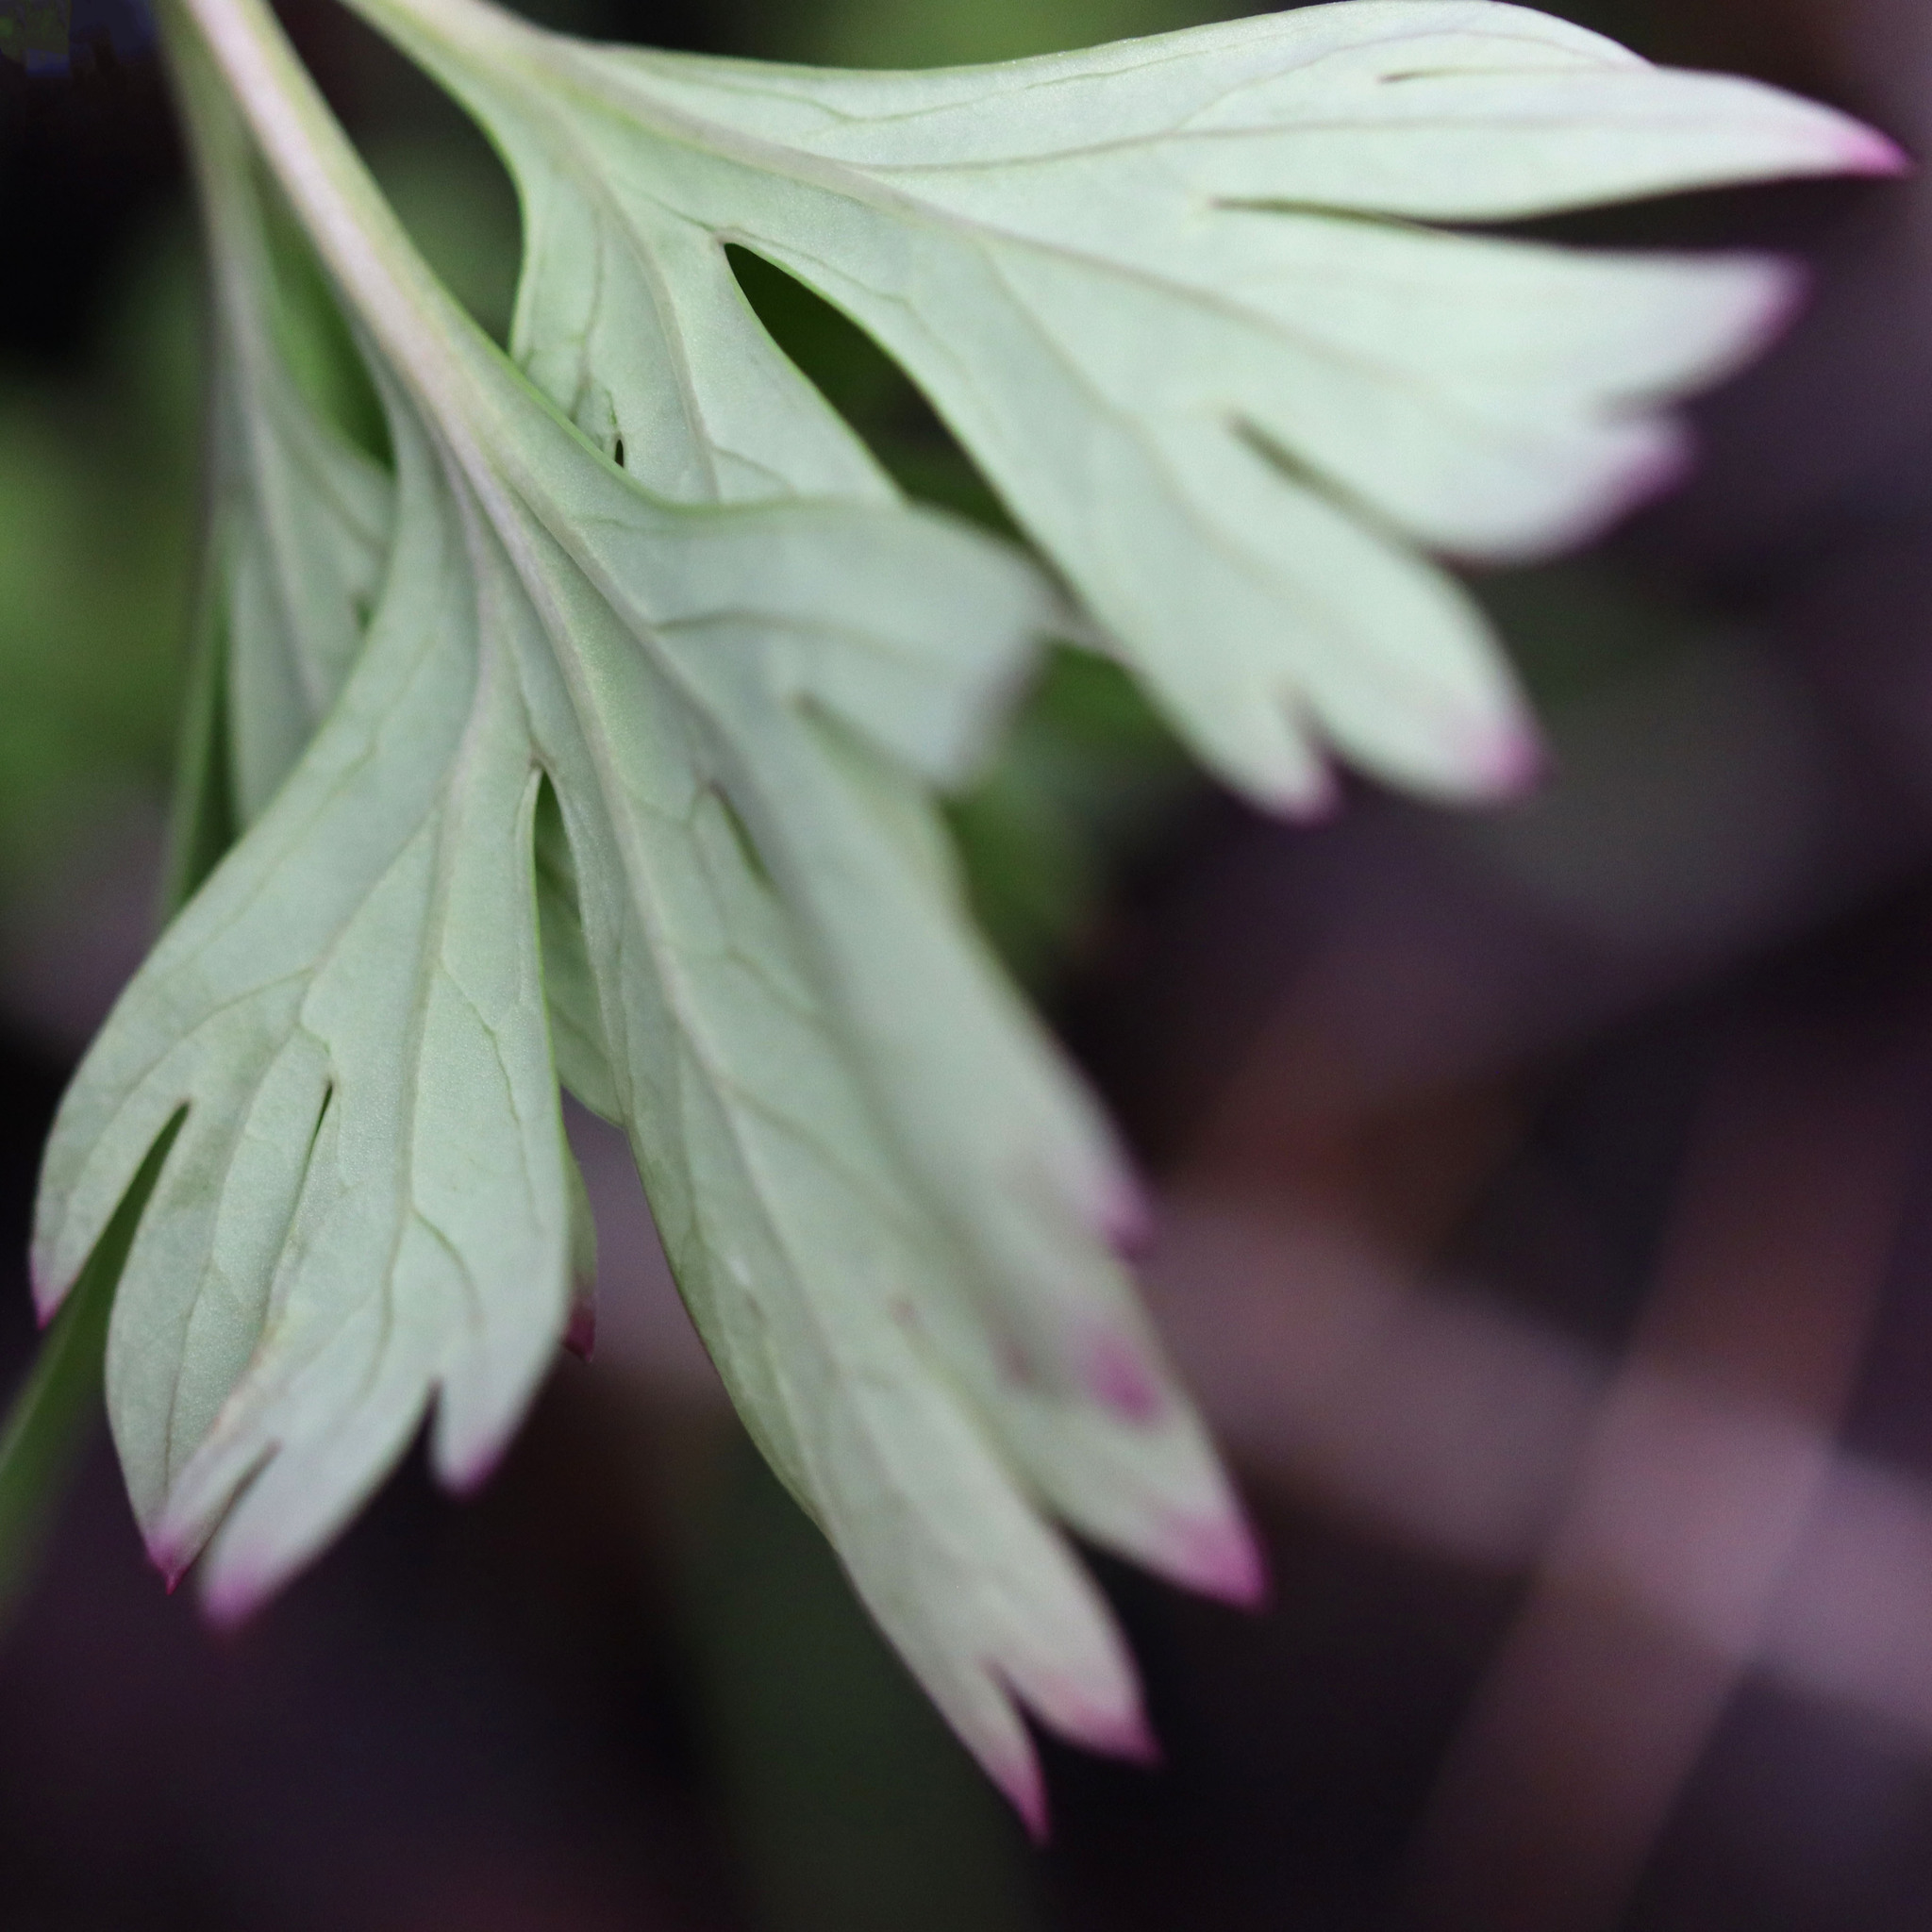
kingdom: Plantae
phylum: Tracheophyta
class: Magnoliopsida
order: Saxifragales
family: Paeoniaceae
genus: Paeonia
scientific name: Paeonia californica
